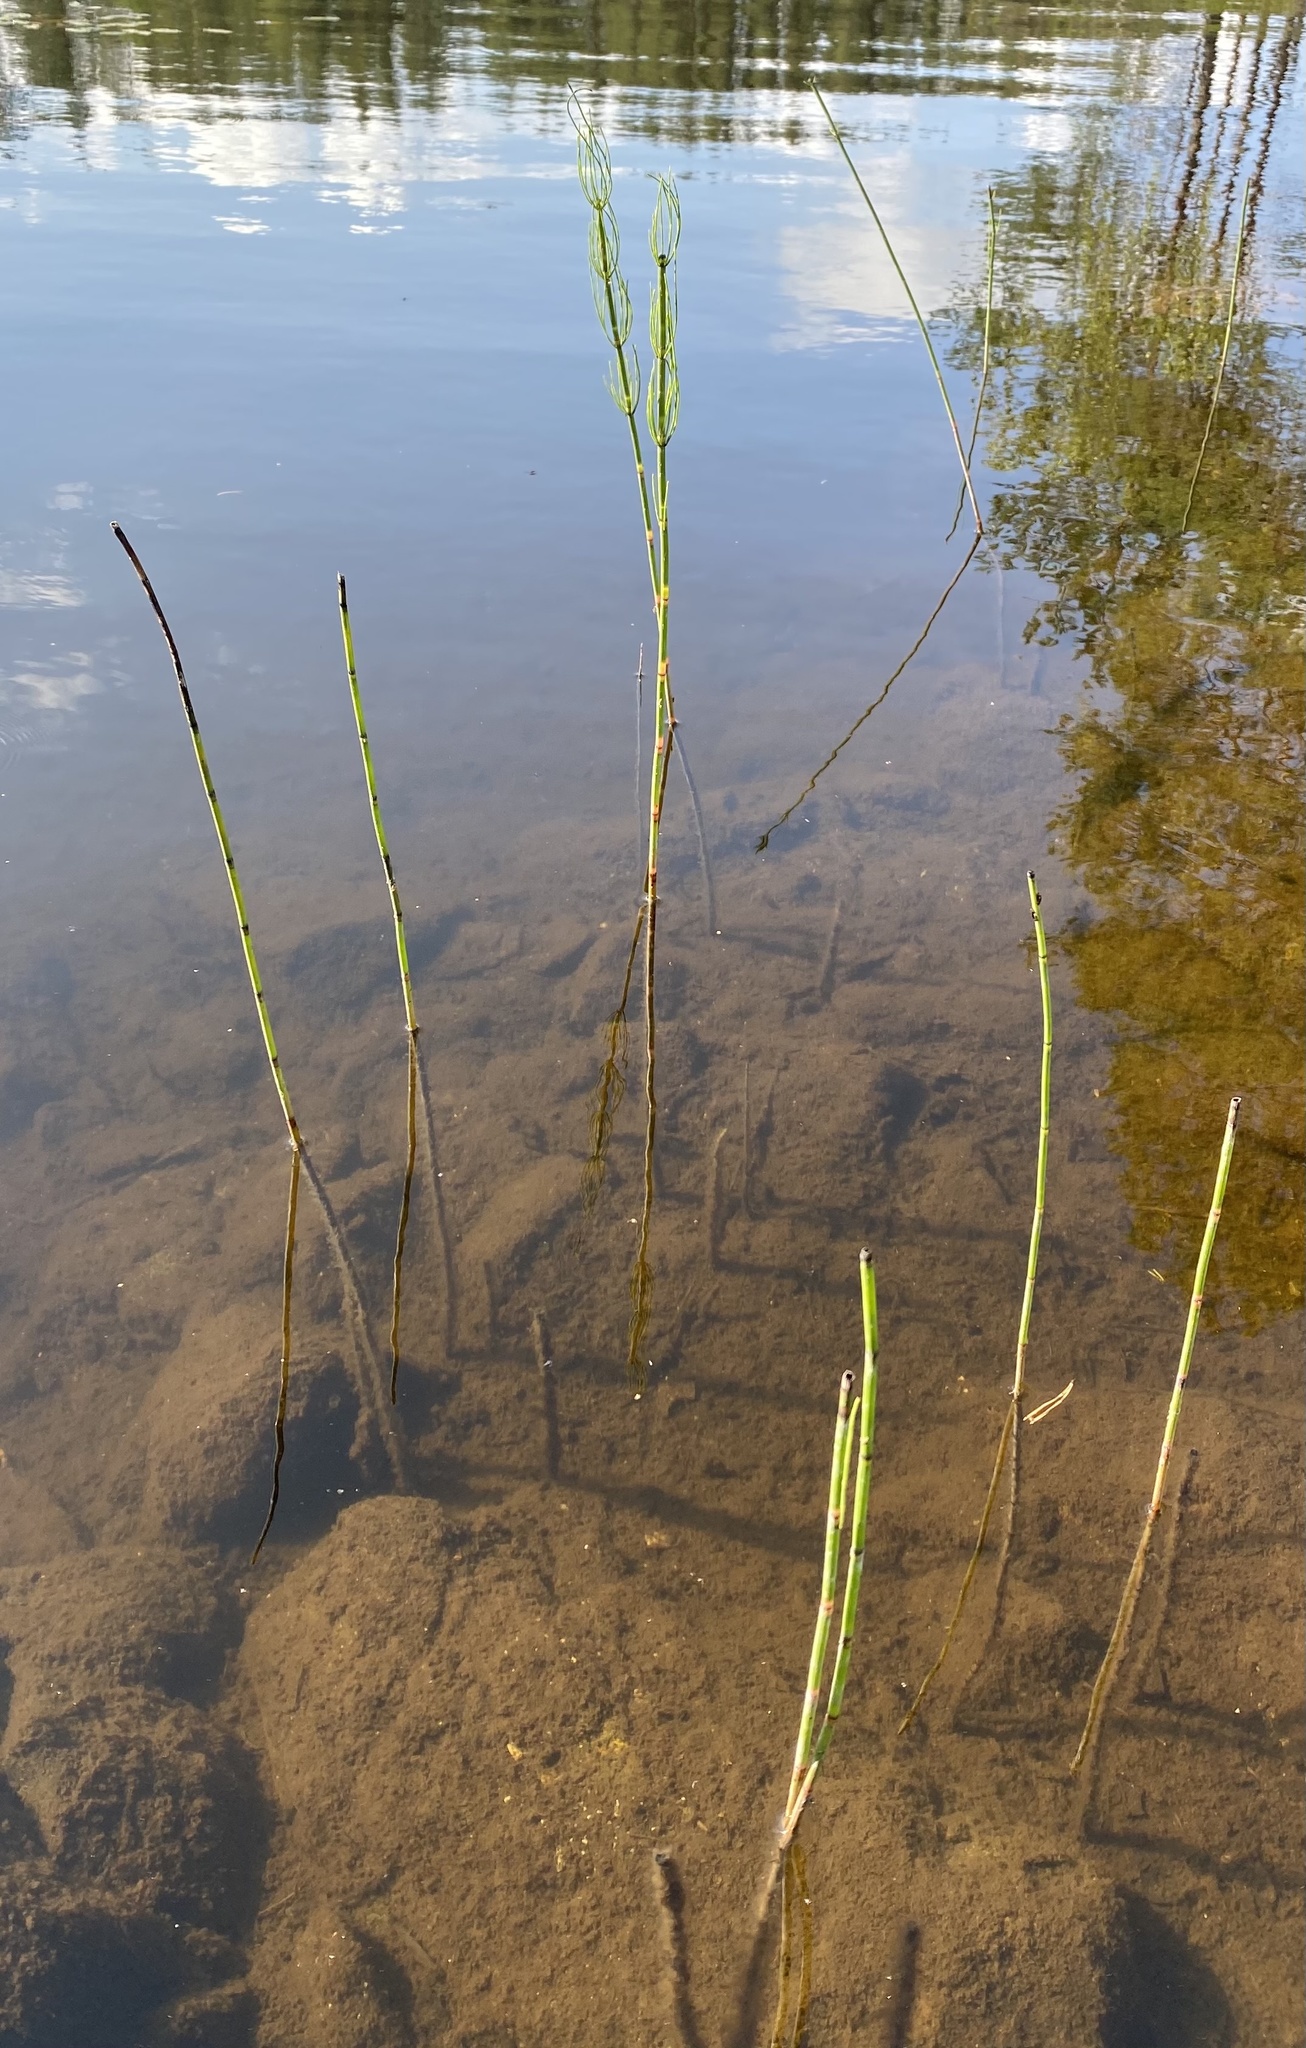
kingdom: Plantae
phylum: Tracheophyta
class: Polypodiopsida
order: Equisetales
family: Equisetaceae
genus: Equisetum
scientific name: Equisetum fluviatile
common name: Water horsetail
